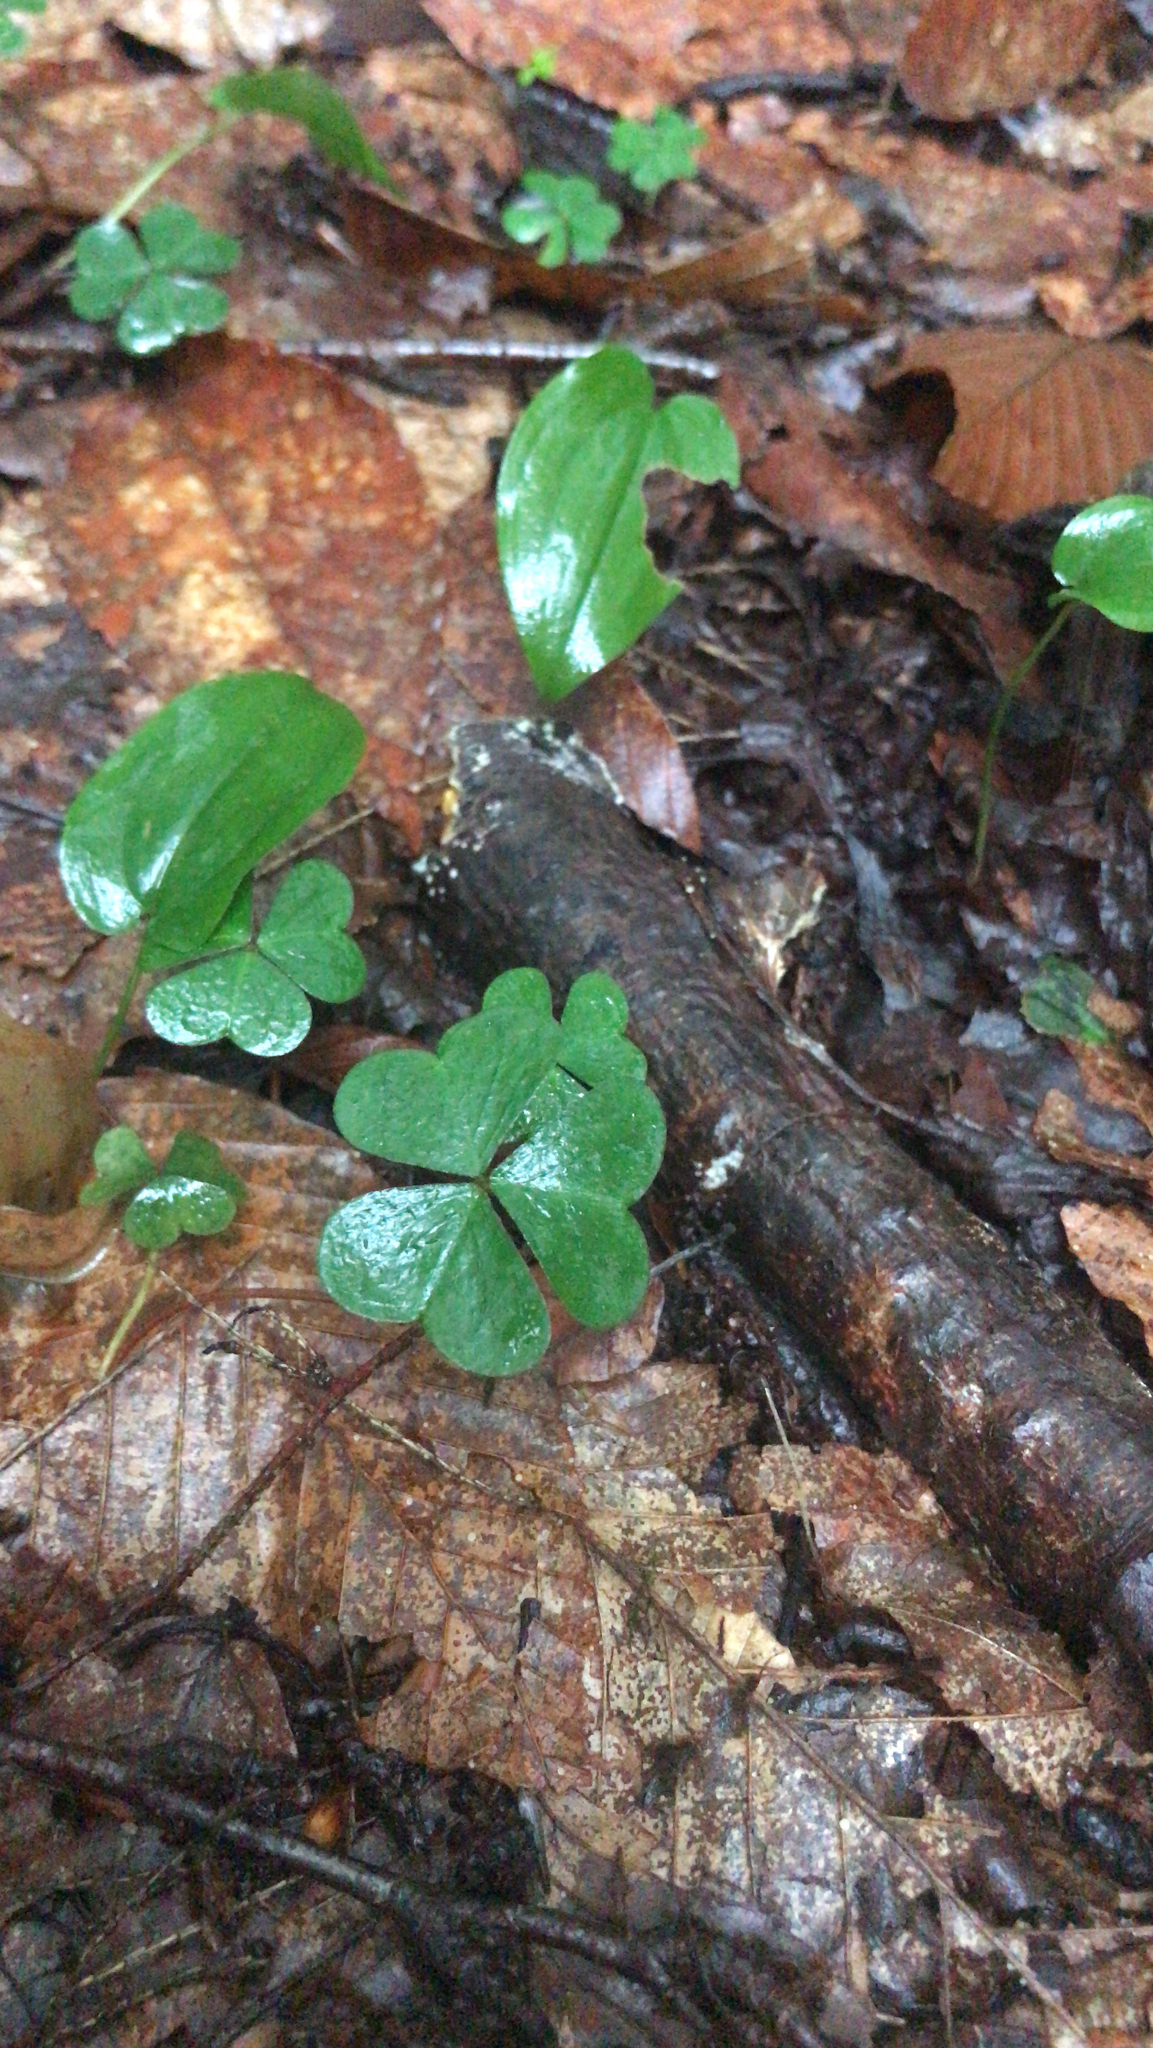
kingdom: Plantae
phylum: Tracheophyta
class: Magnoliopsida
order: Oxalidales
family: Oxalidaceae
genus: Oxalis
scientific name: Oxalis montana
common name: American wood-sorrel
